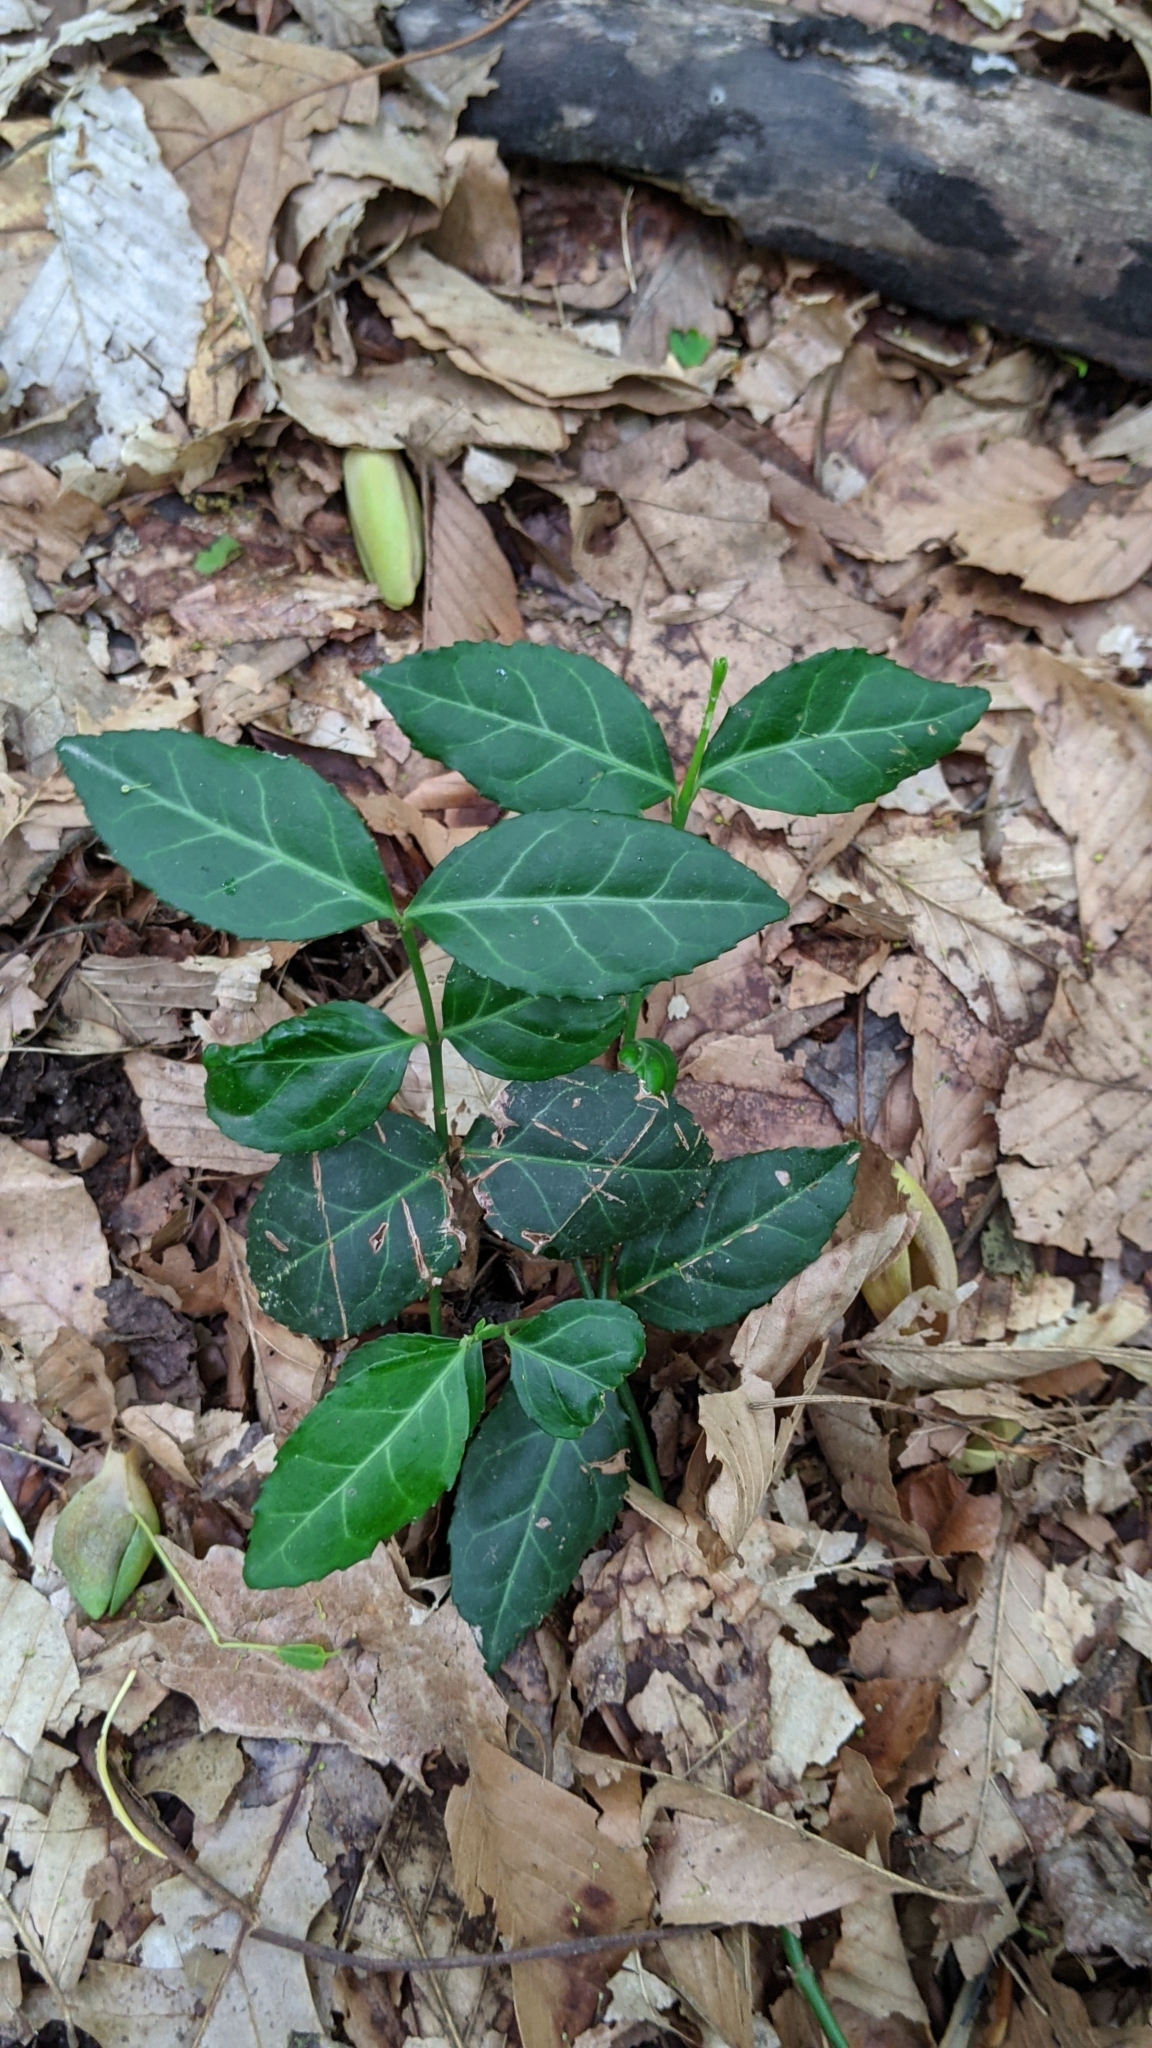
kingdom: Plantae
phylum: Tracheophyta
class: Magnoliopsida
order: Celastrales
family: Celastraceae
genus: Euonymus
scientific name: Euonymus fortunei
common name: Climbing euonymus
